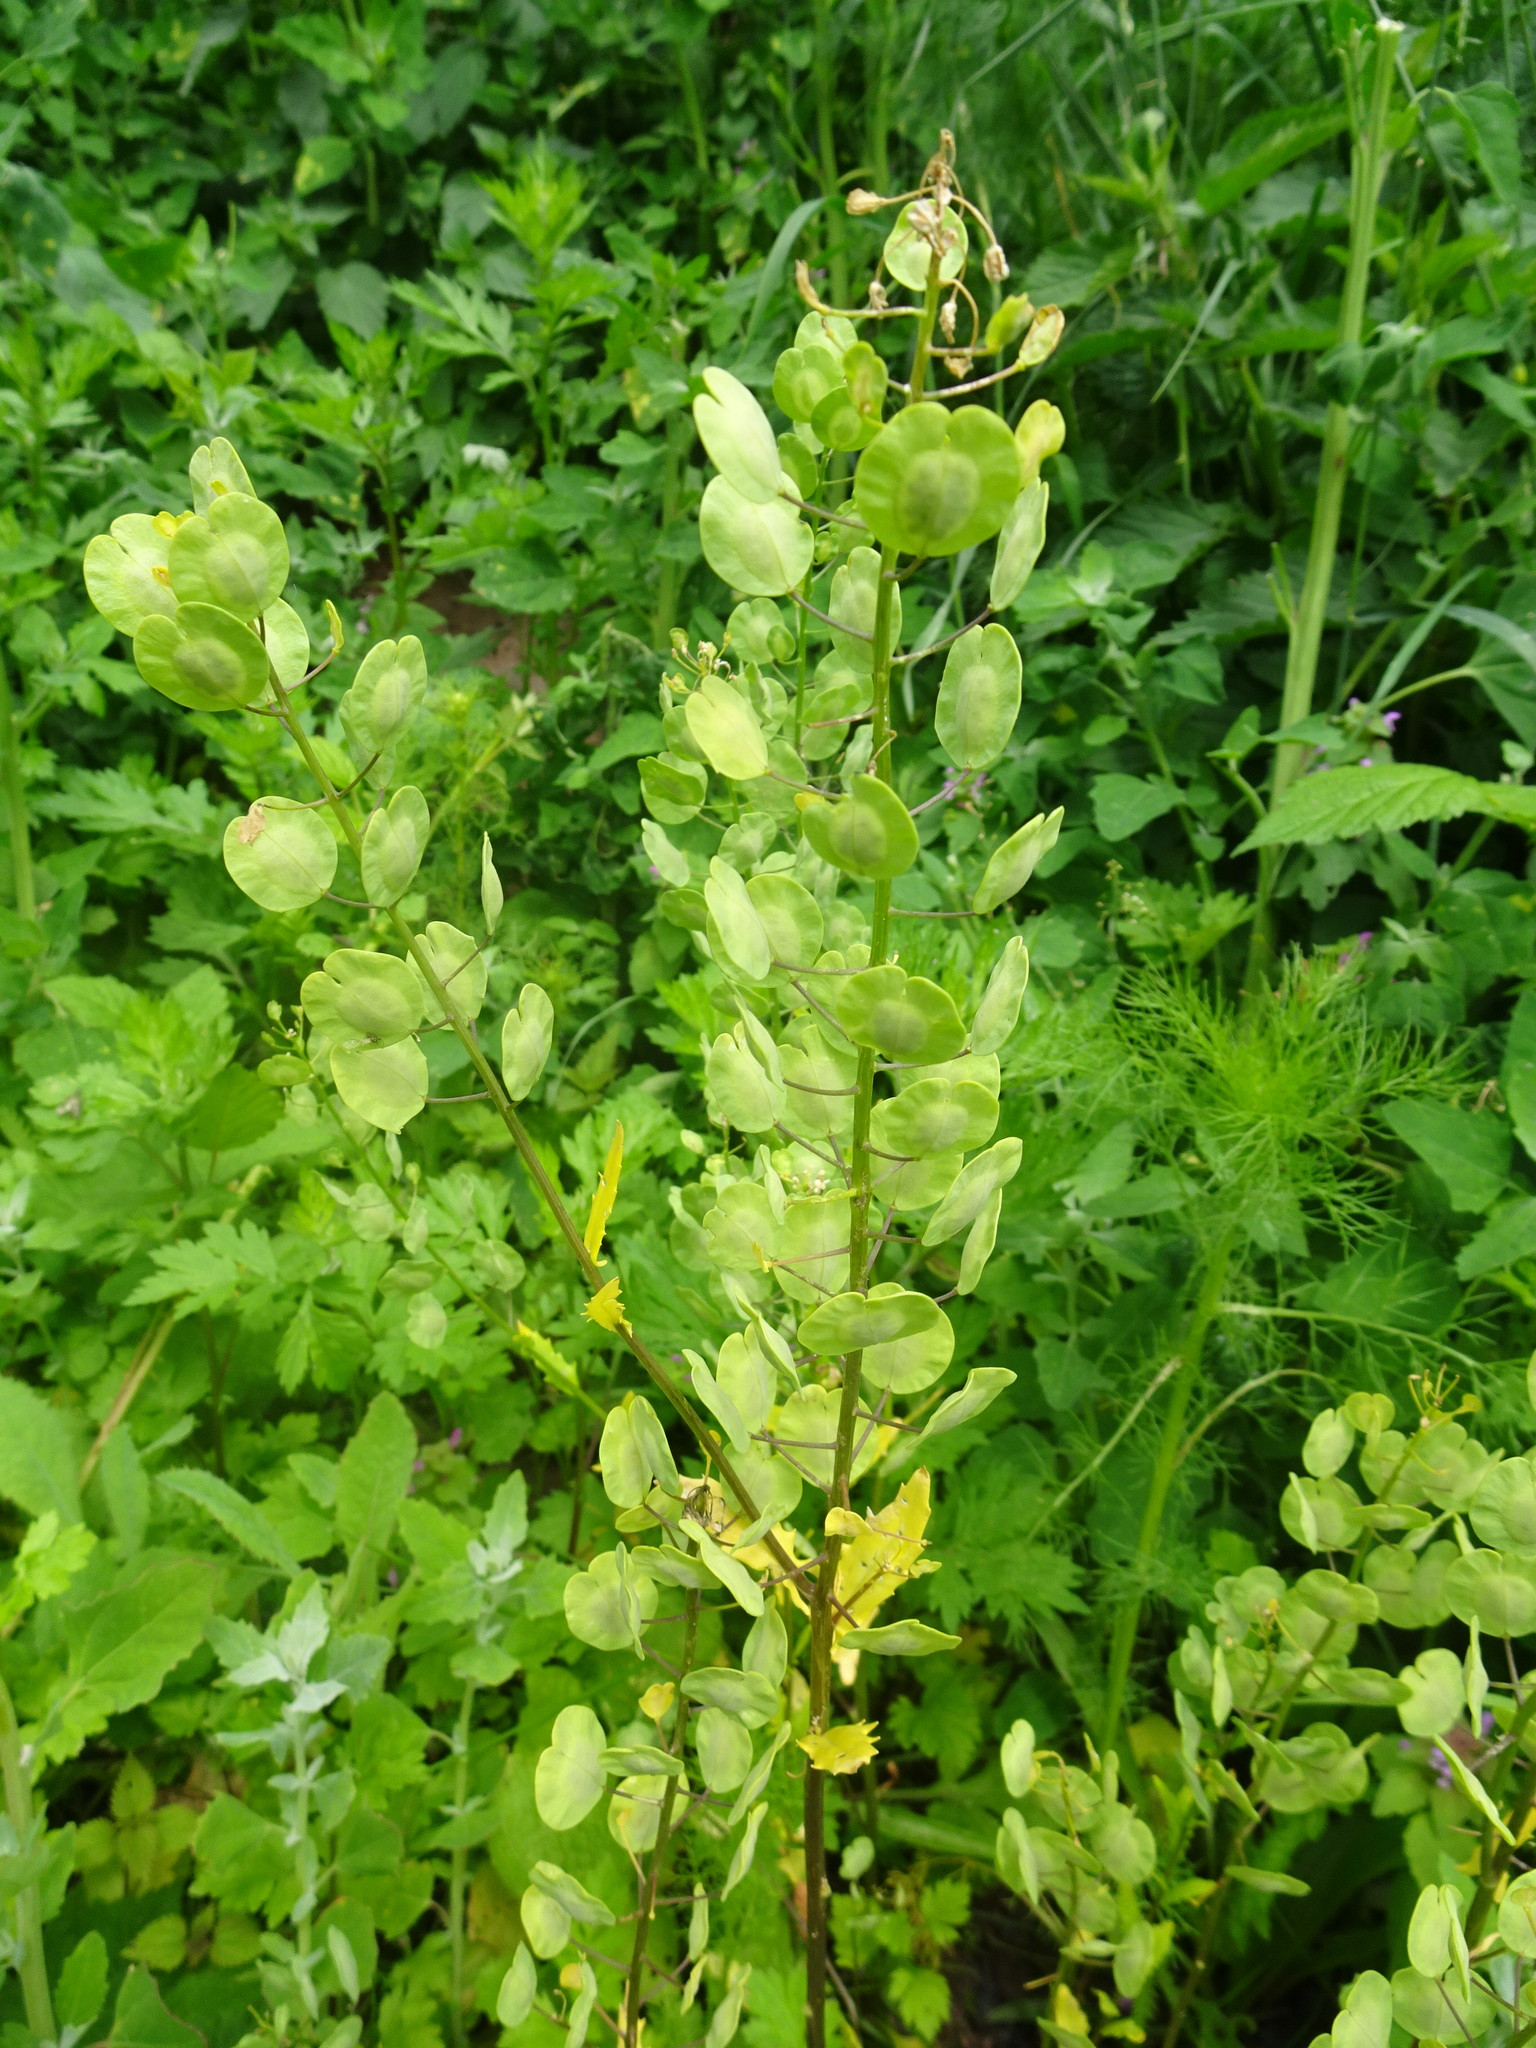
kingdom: Plantae
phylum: Tracheophyta
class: Magnoliopsida
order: Brassicales
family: Brassicaceae
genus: Thlaspi
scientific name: Thlaspi arvense
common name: Field pennycress
